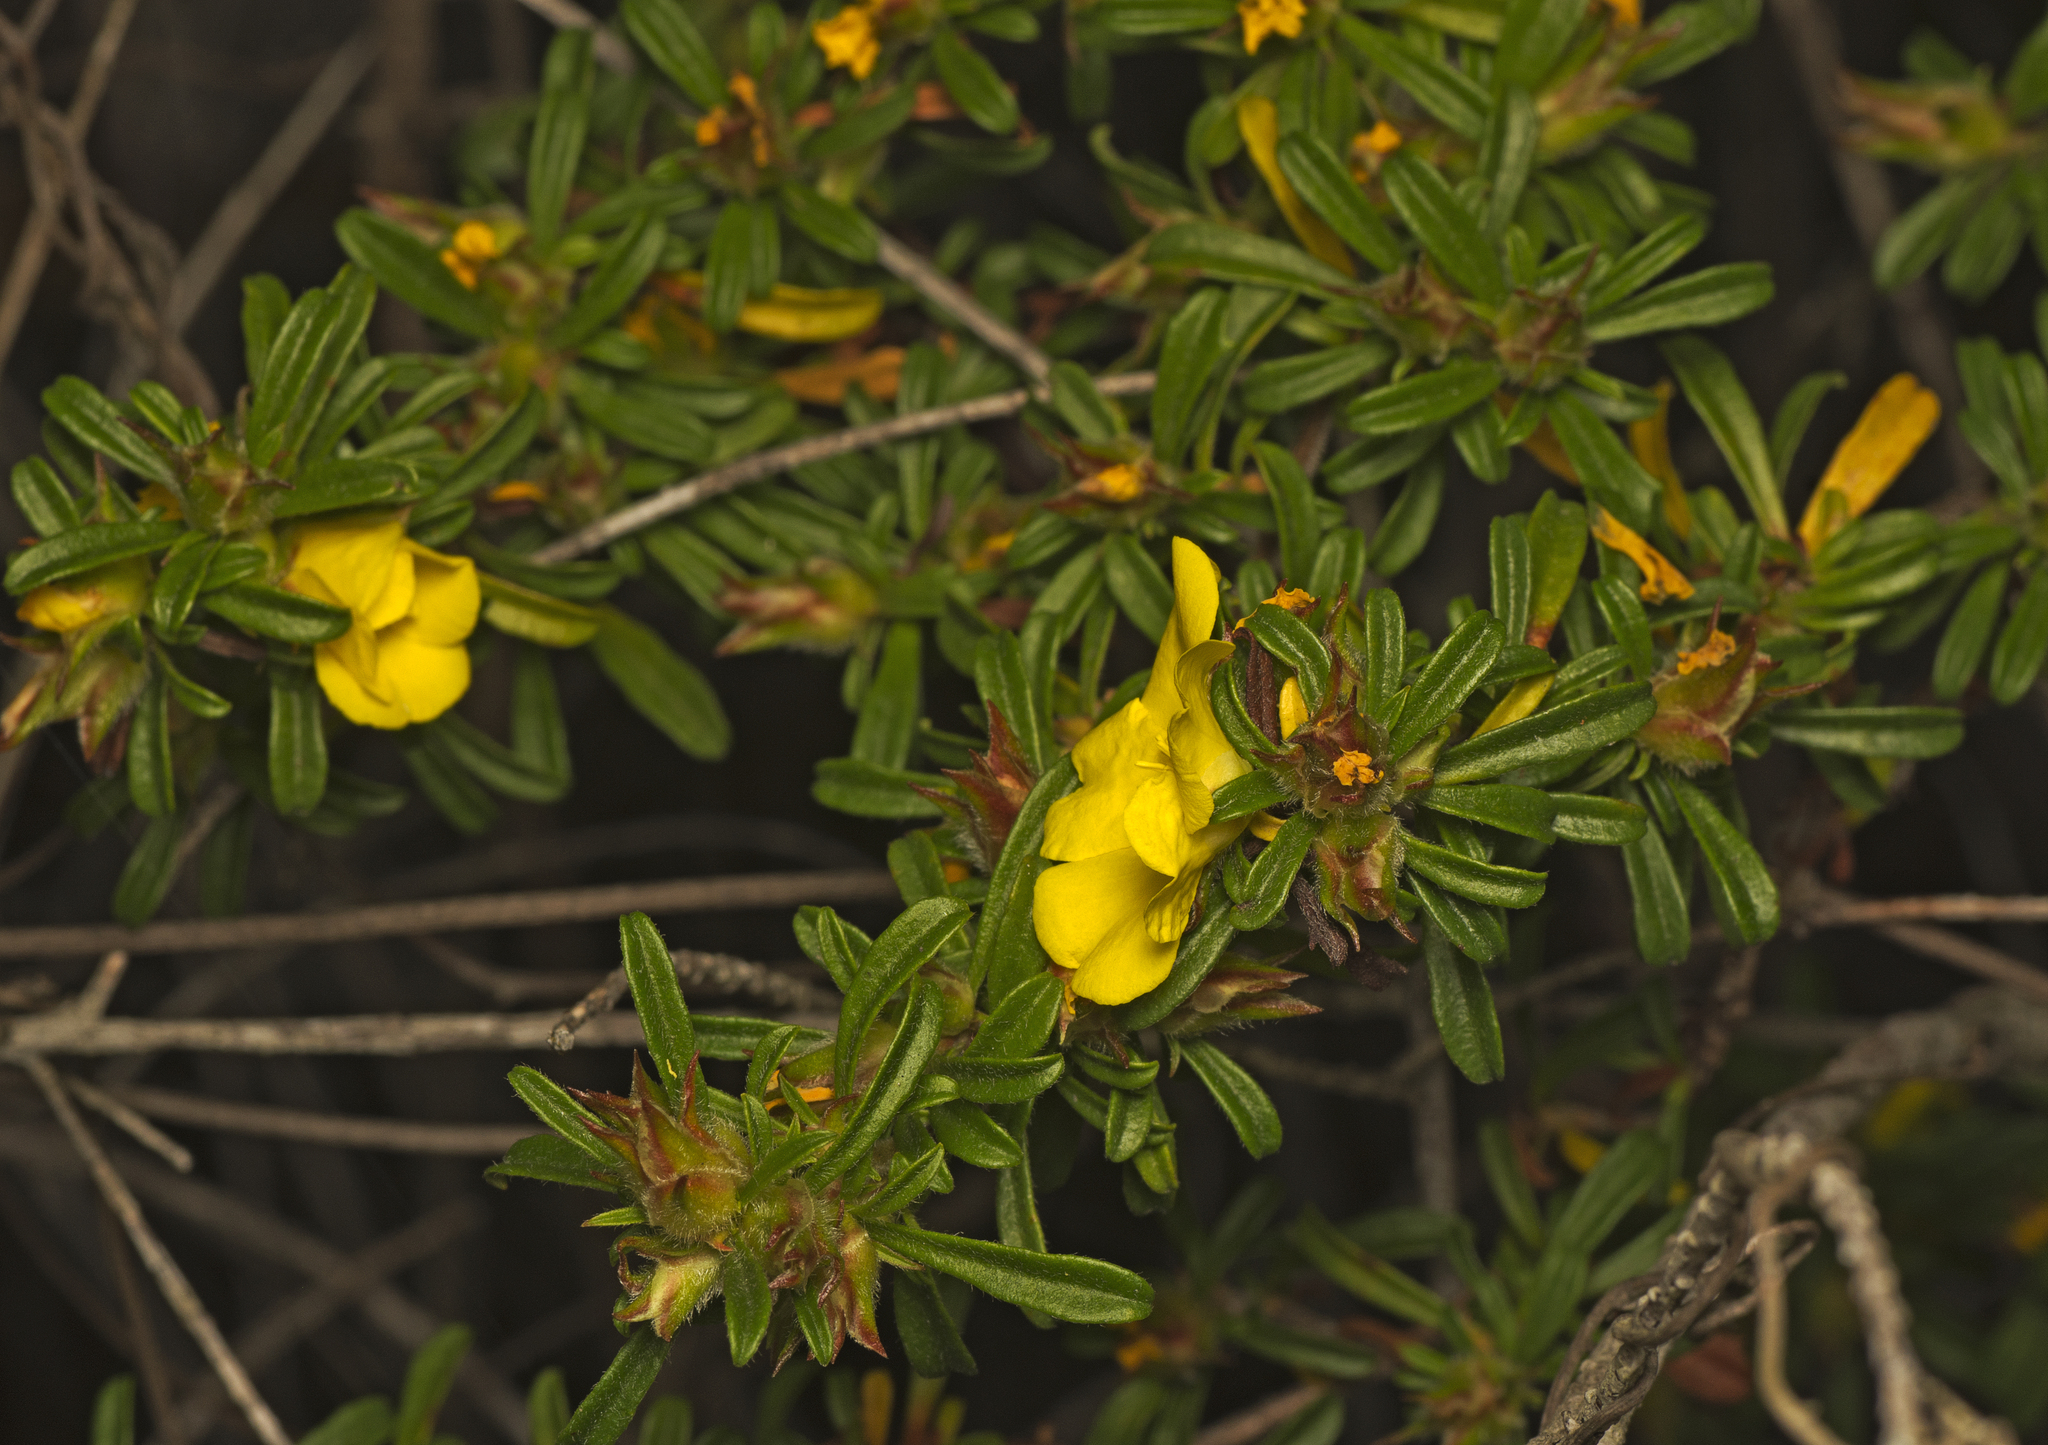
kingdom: Plantae
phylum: Tracheophyta
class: Magnoliopsida
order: Dilleniales
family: Dilleniaceae
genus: Hibbertia
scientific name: Hibbertia linearis
